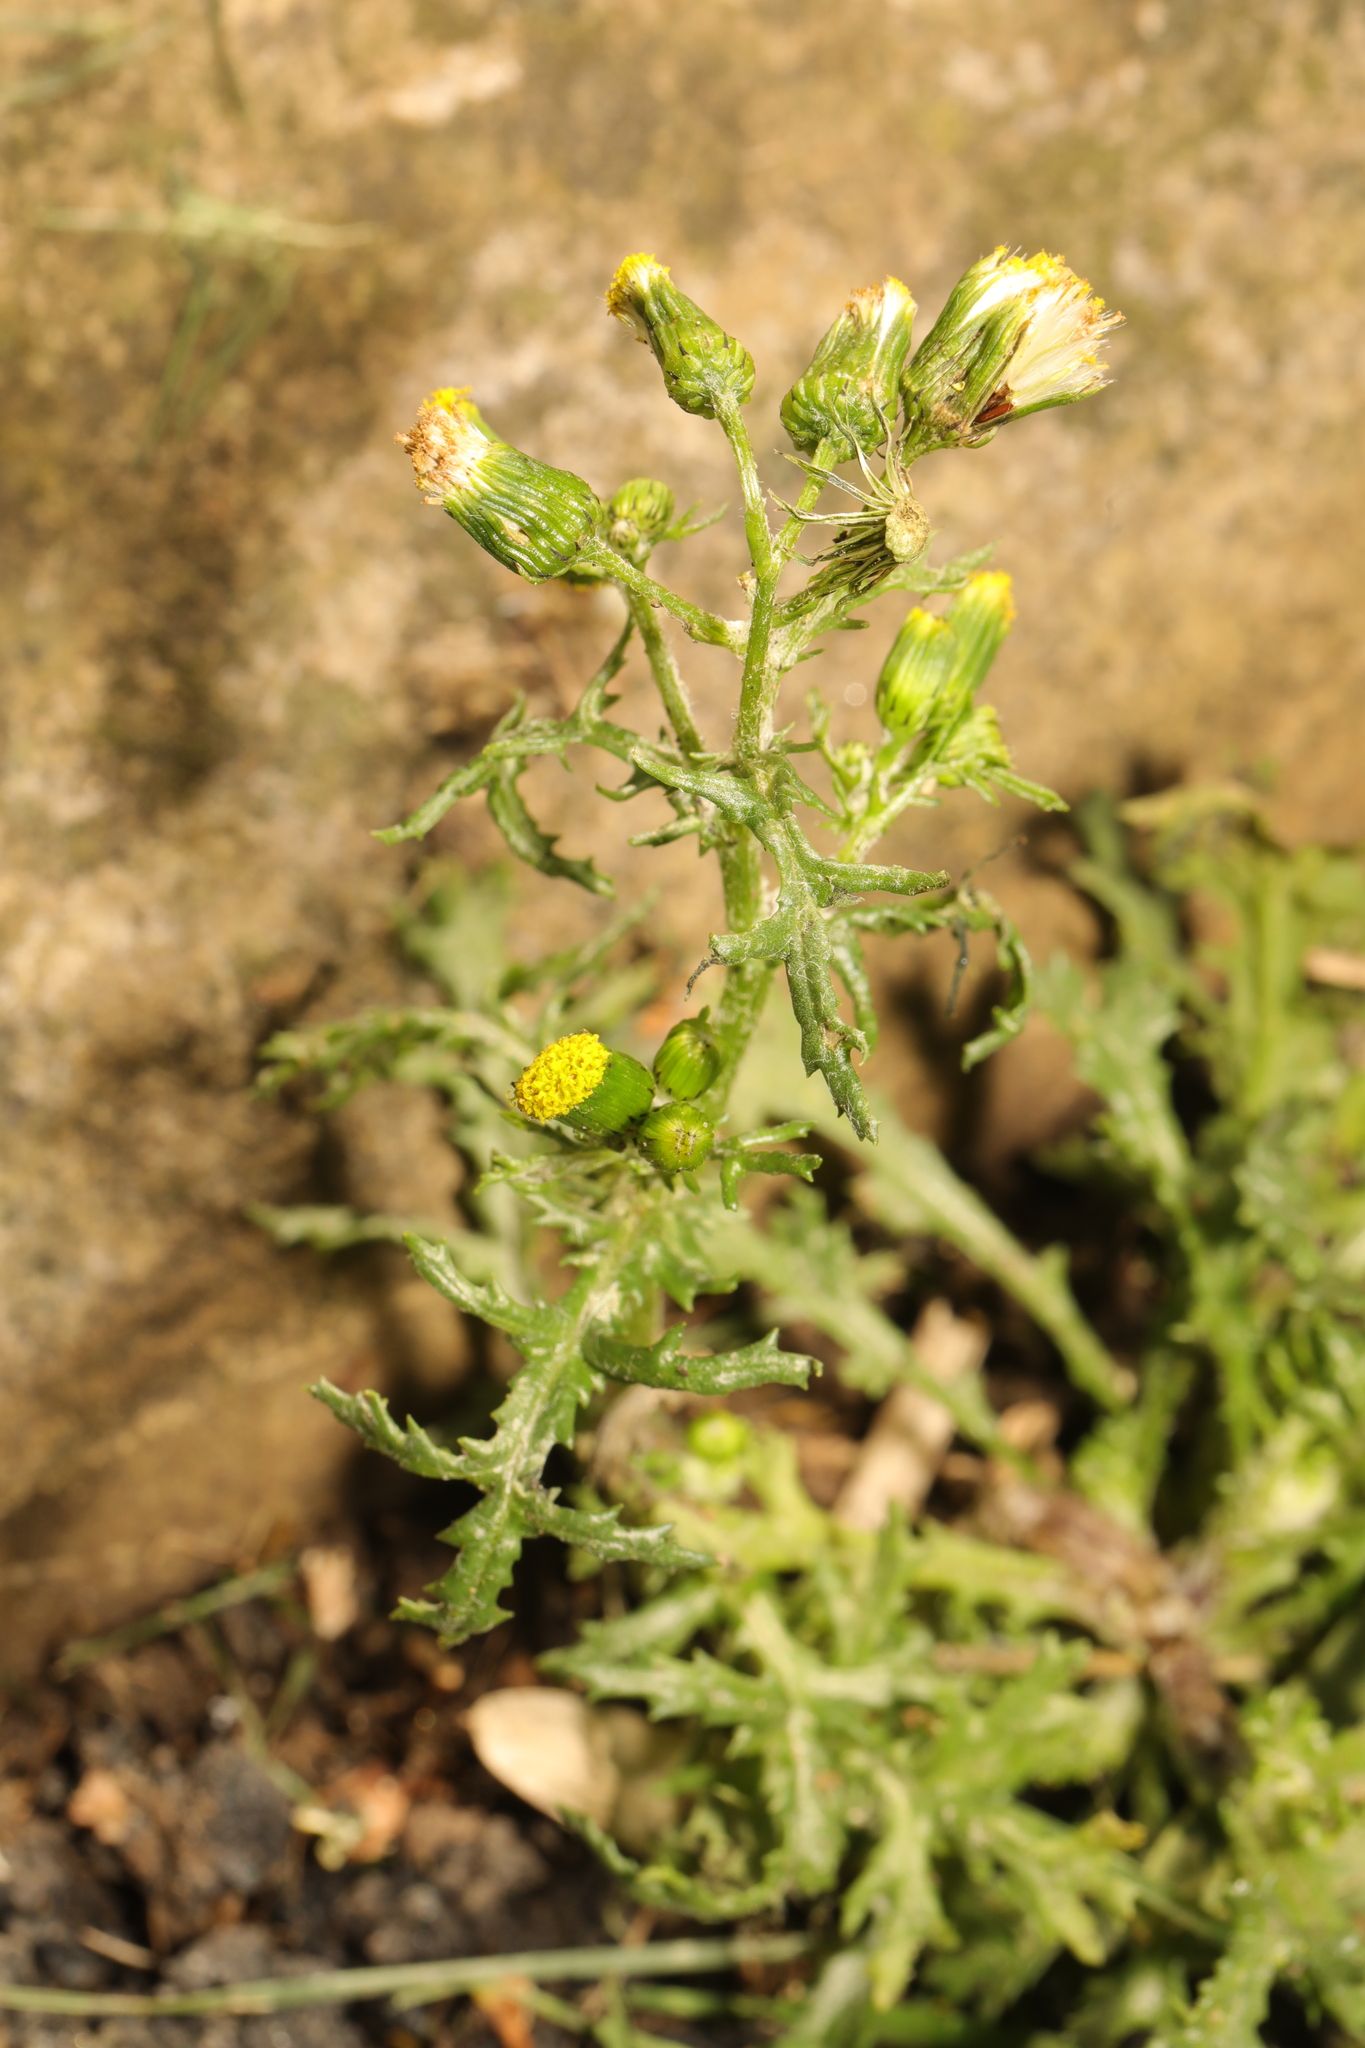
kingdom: Plantae
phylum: Tracheophyta
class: Magnoliopsida
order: Asterales
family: Asteraceae
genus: Senecio
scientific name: Senecio vulgaris
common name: Old-man-in-the-spring
